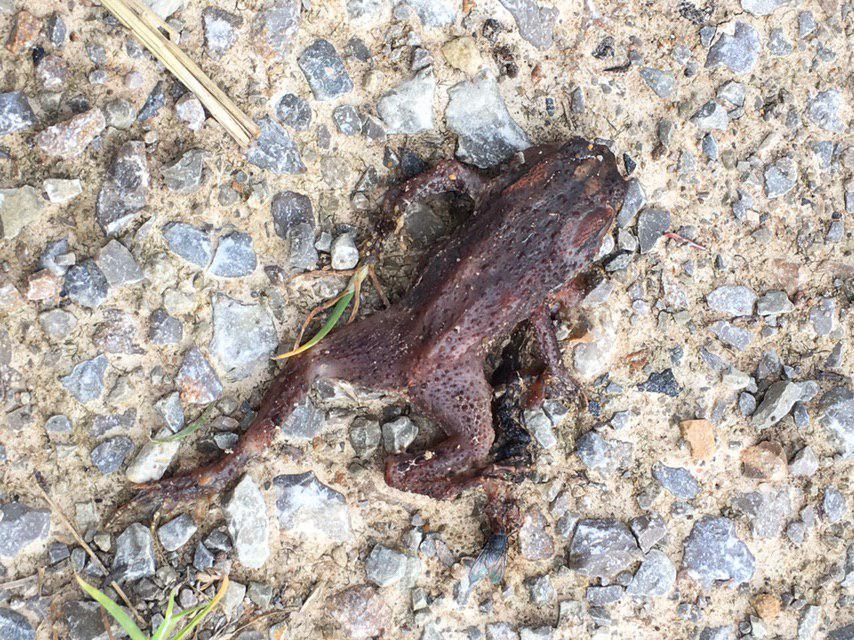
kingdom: Animalia
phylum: Chordata
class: Amphibia
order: Anura
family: Bufonidae
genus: Bufo
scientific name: Bufo bufo
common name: Common toad
